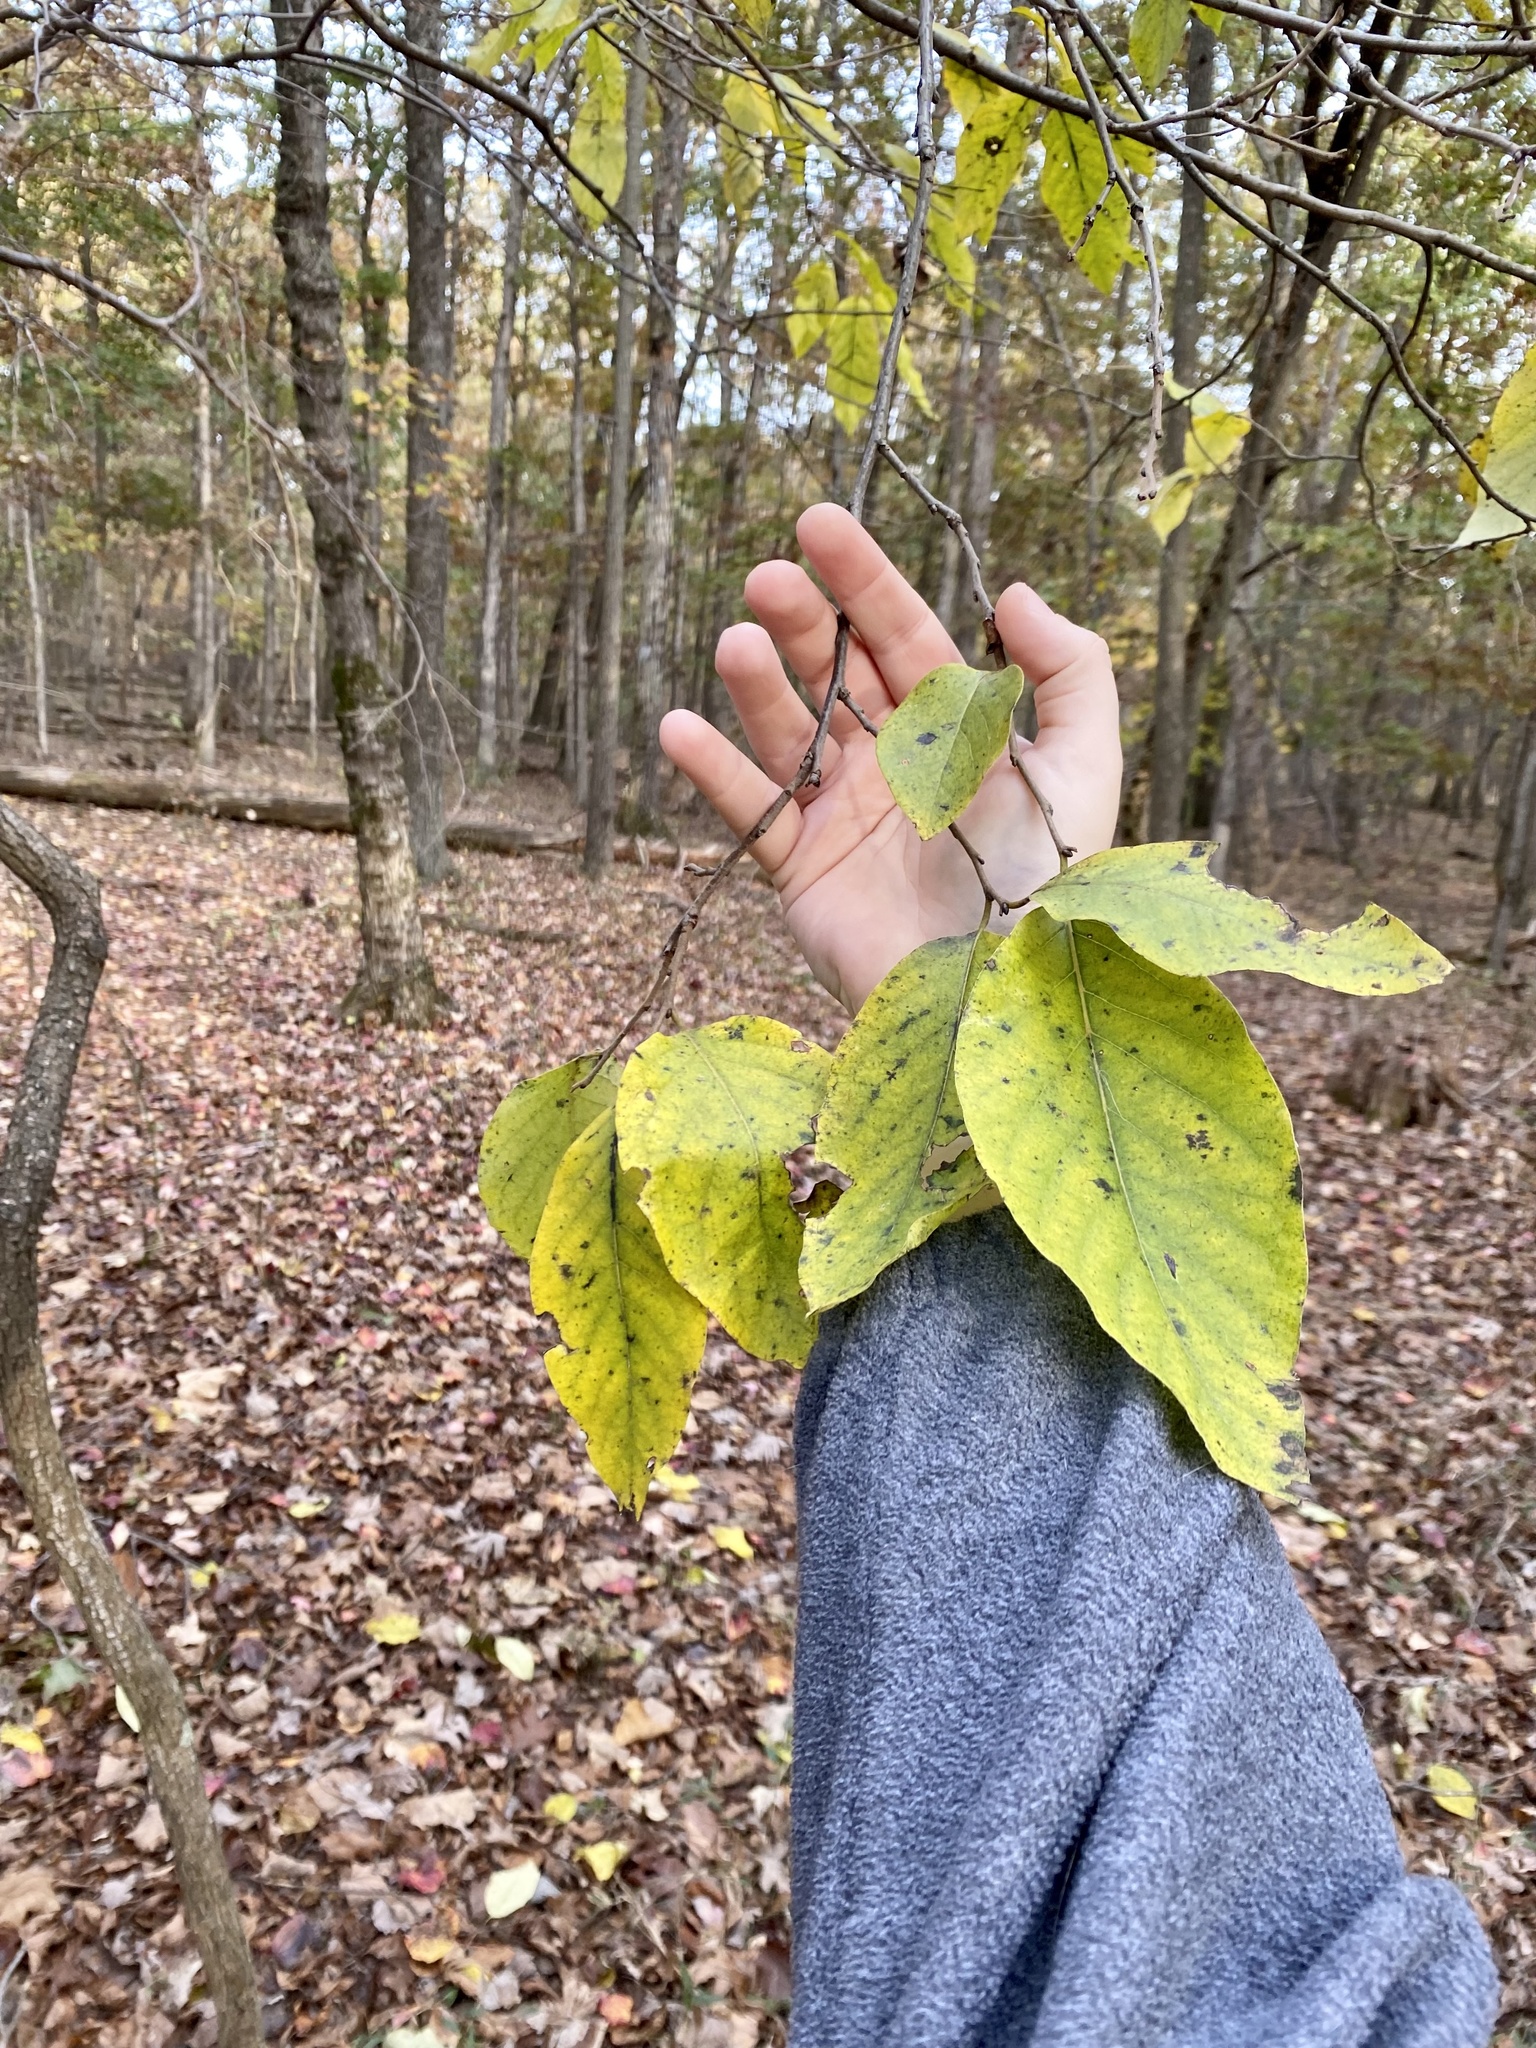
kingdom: Plantae
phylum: Tracheophyta
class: Magnoliopsida
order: Ericales
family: Ebenaceae
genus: Diospyros
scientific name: Diospyros virginiana
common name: Persimmon
